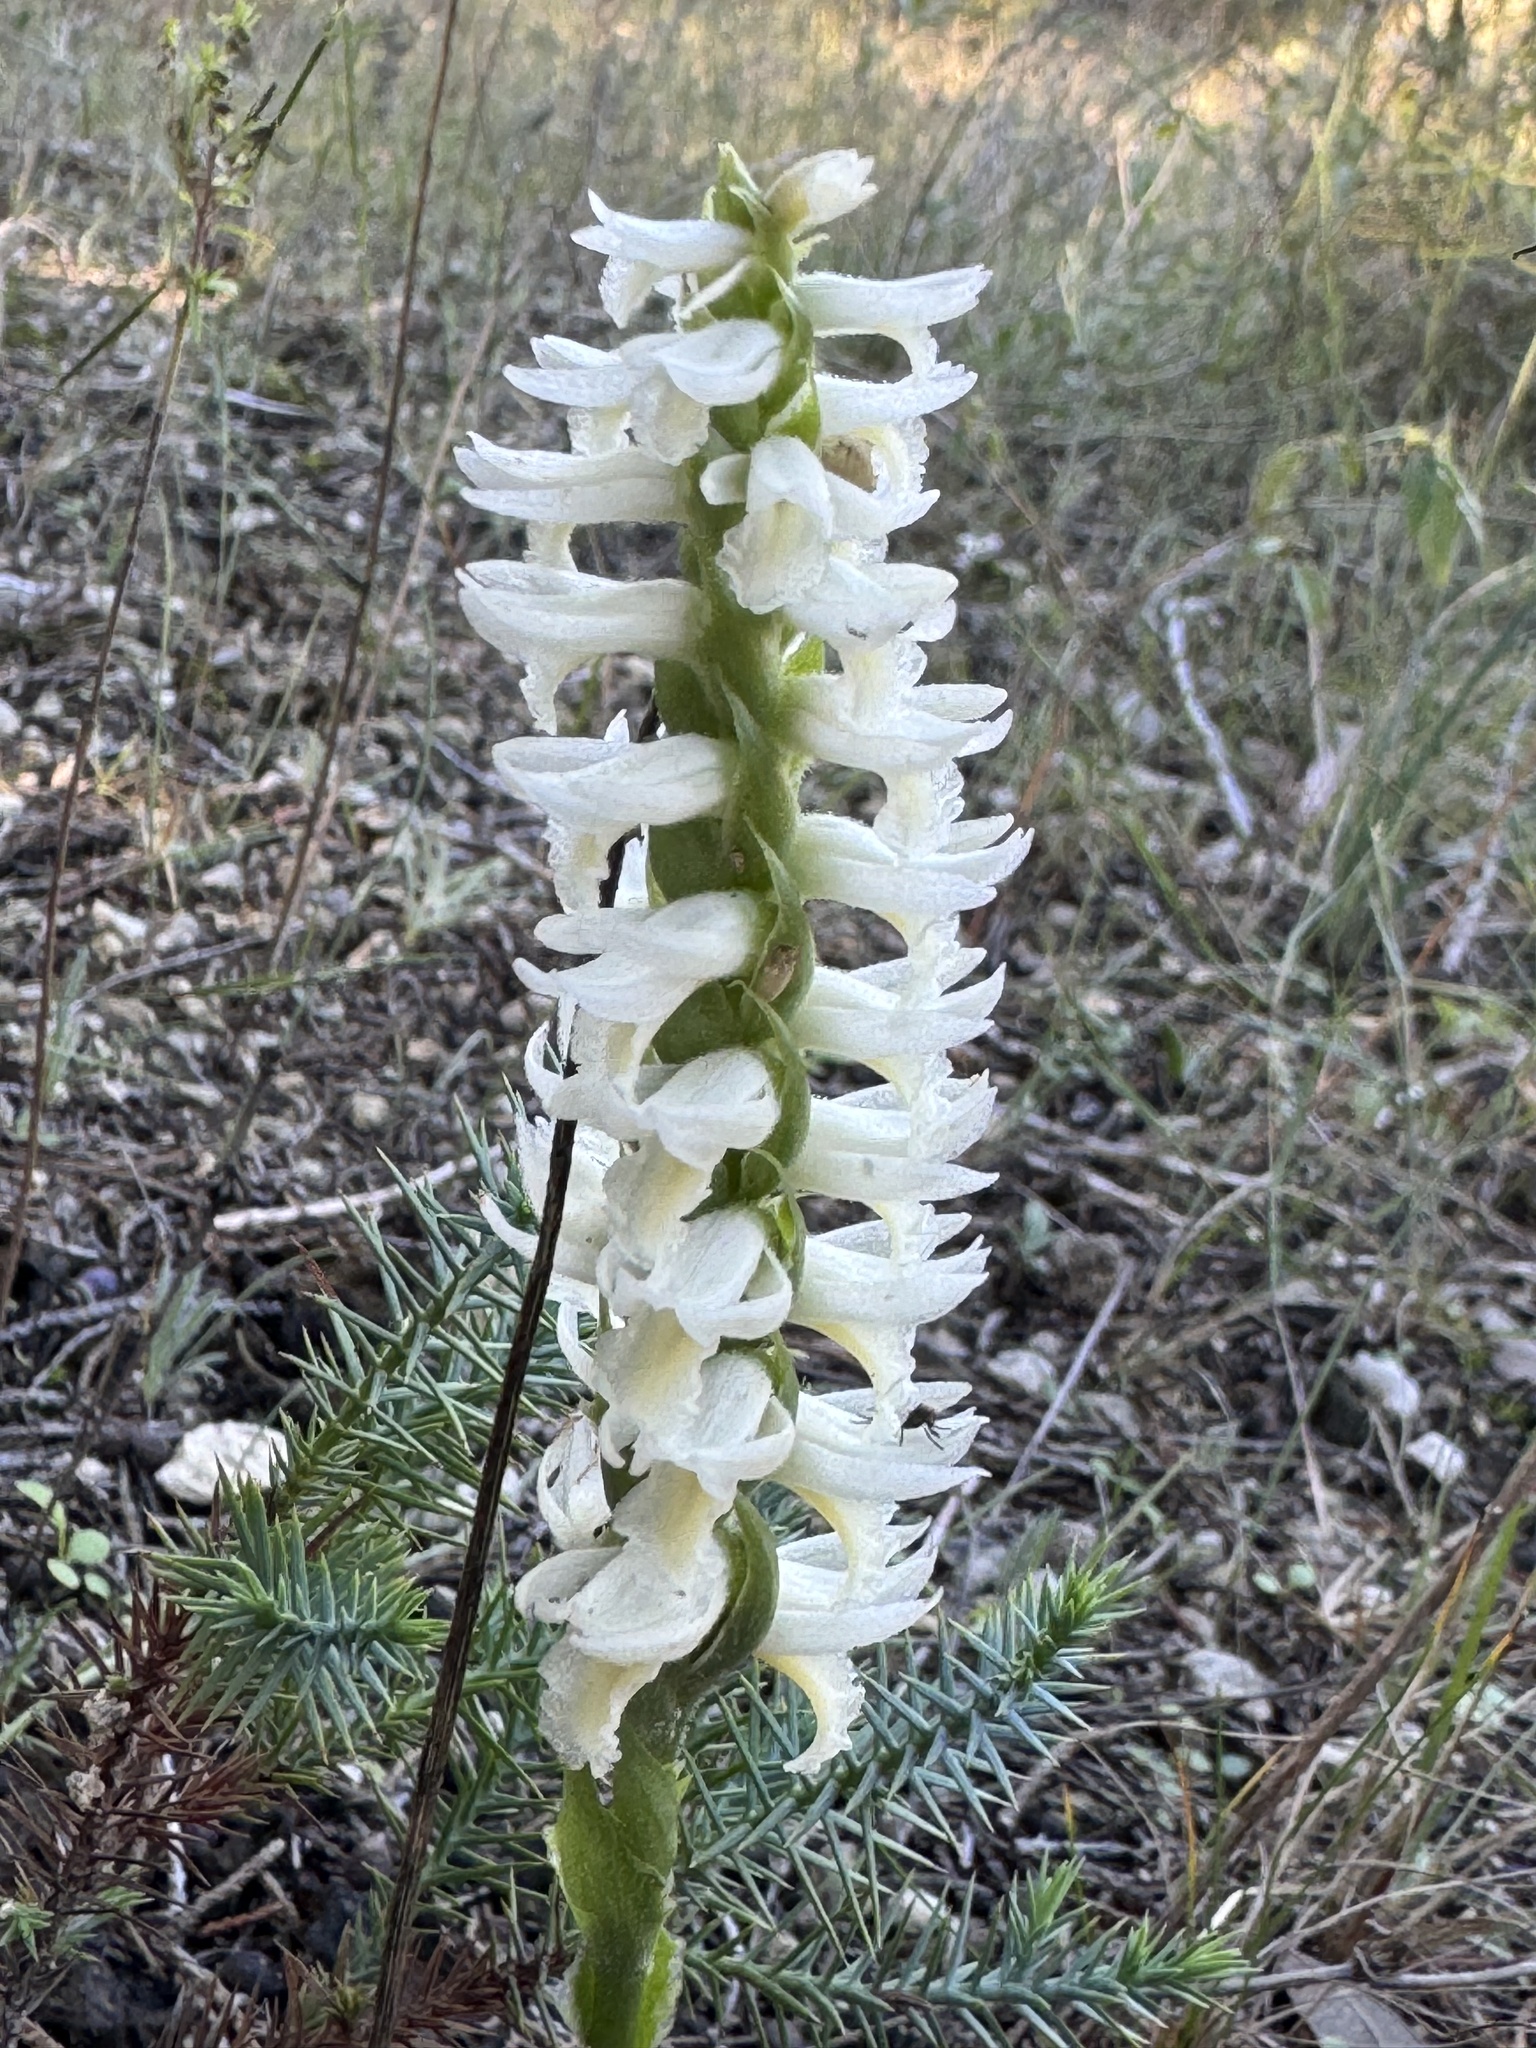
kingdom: Plantae
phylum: Tracheophyta
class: Liliopsida
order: Asparagales
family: Orchidaceae
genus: Spiranthes
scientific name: Spiranthes magnicamporum
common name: Great plains ladies'-tresses
